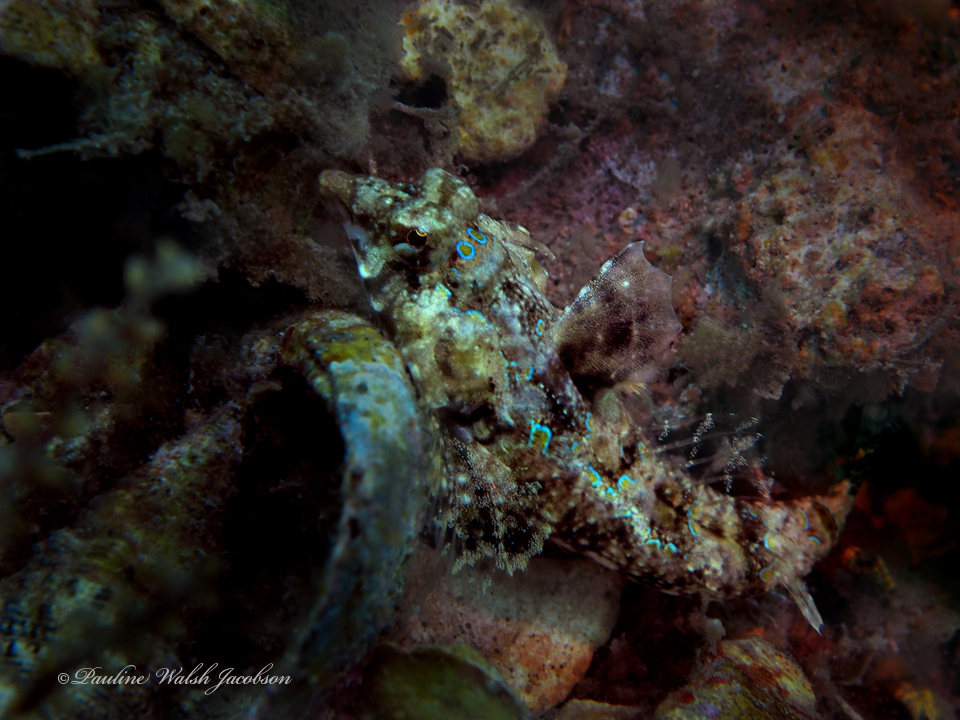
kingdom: Animalia
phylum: Chordata
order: Perciformes
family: Callionymidae
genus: Callionymus
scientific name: Callionymus bairdi
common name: Lancer dragonet
